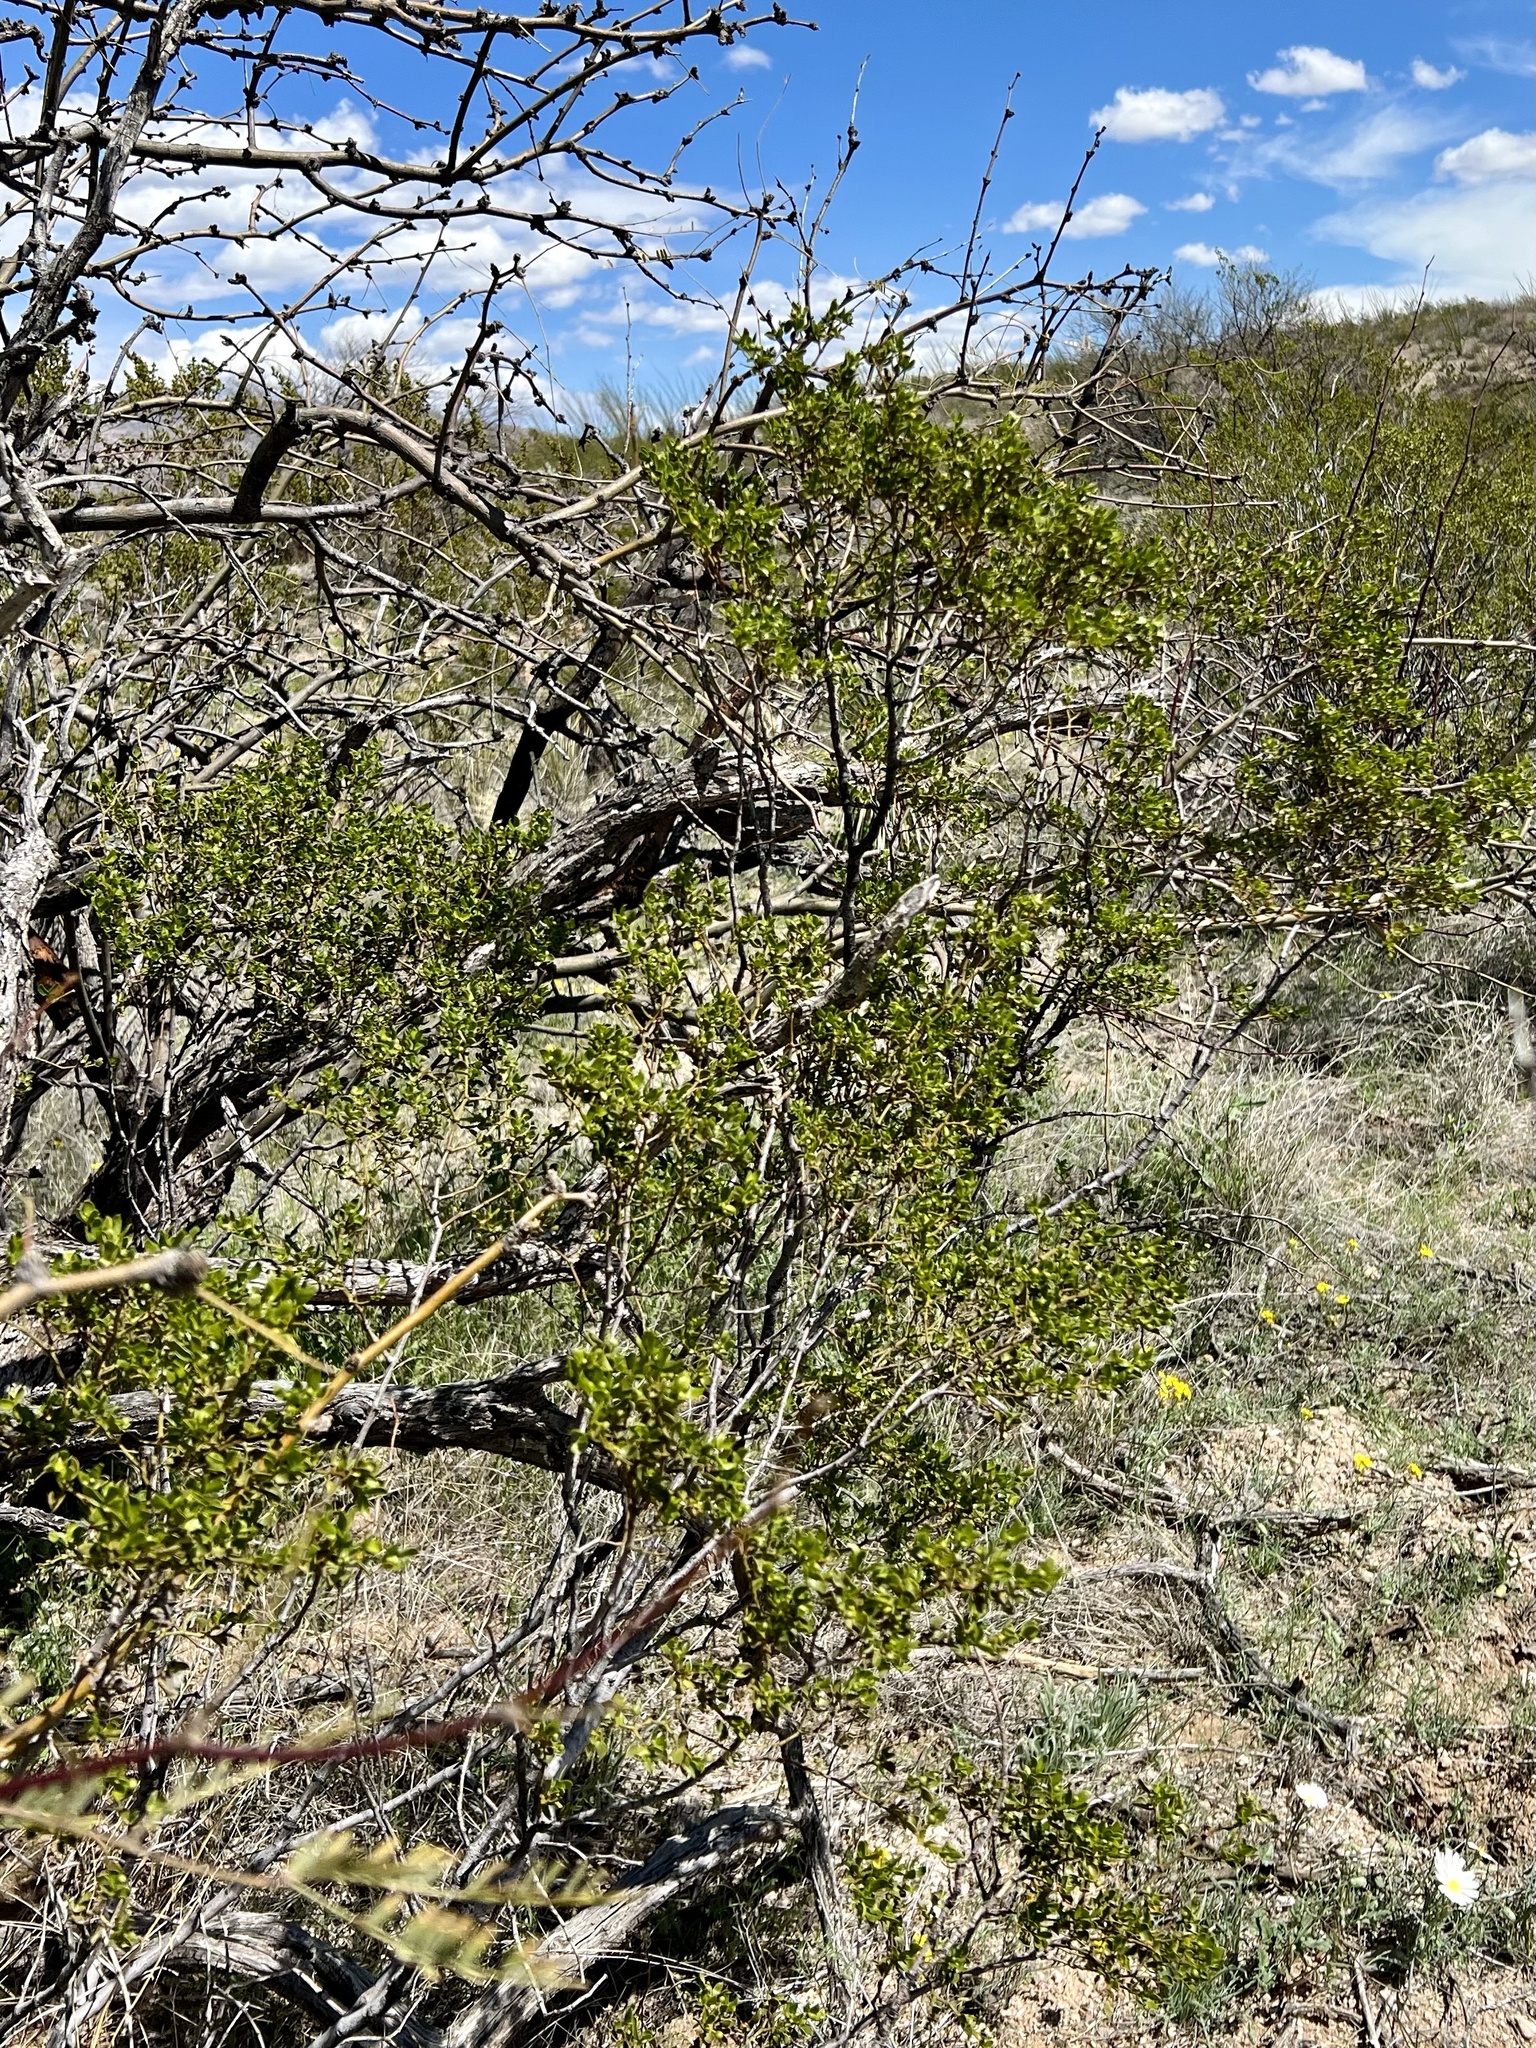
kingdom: Plantae
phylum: Tracheophyta
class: Magnoliopsida
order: Zygophyllales
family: Zygophyllaceae
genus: Larrea
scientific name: Larrea tridentata
